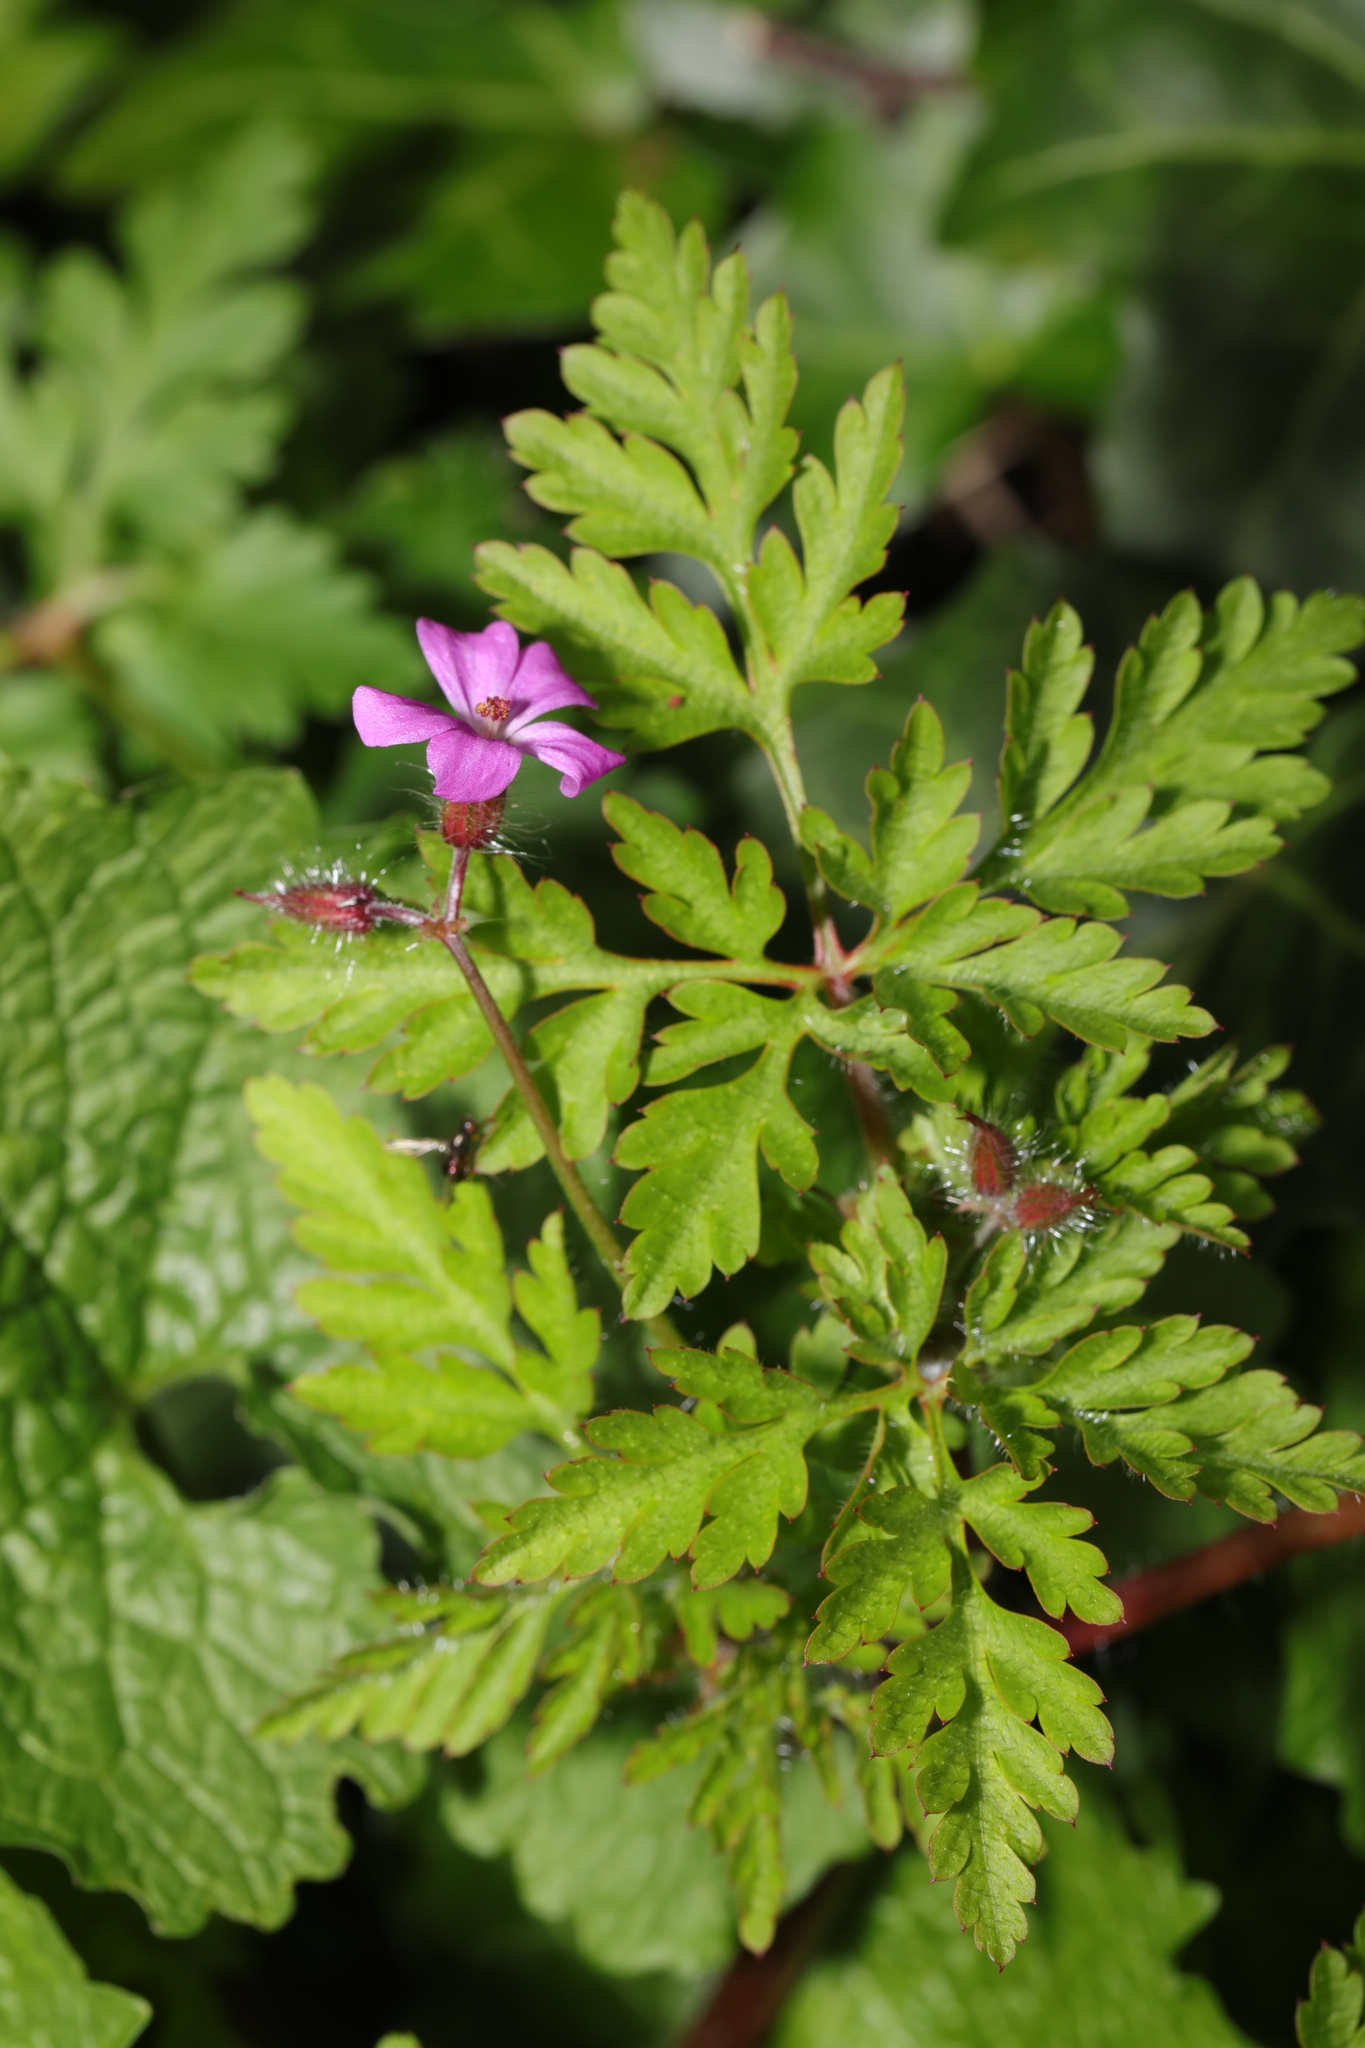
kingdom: Plantae
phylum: Tracheophyta
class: Magnoliopsida
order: Geraniales
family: Geraniaceae
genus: Geranium
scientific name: Geranium robertianum
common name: Herb-robert
